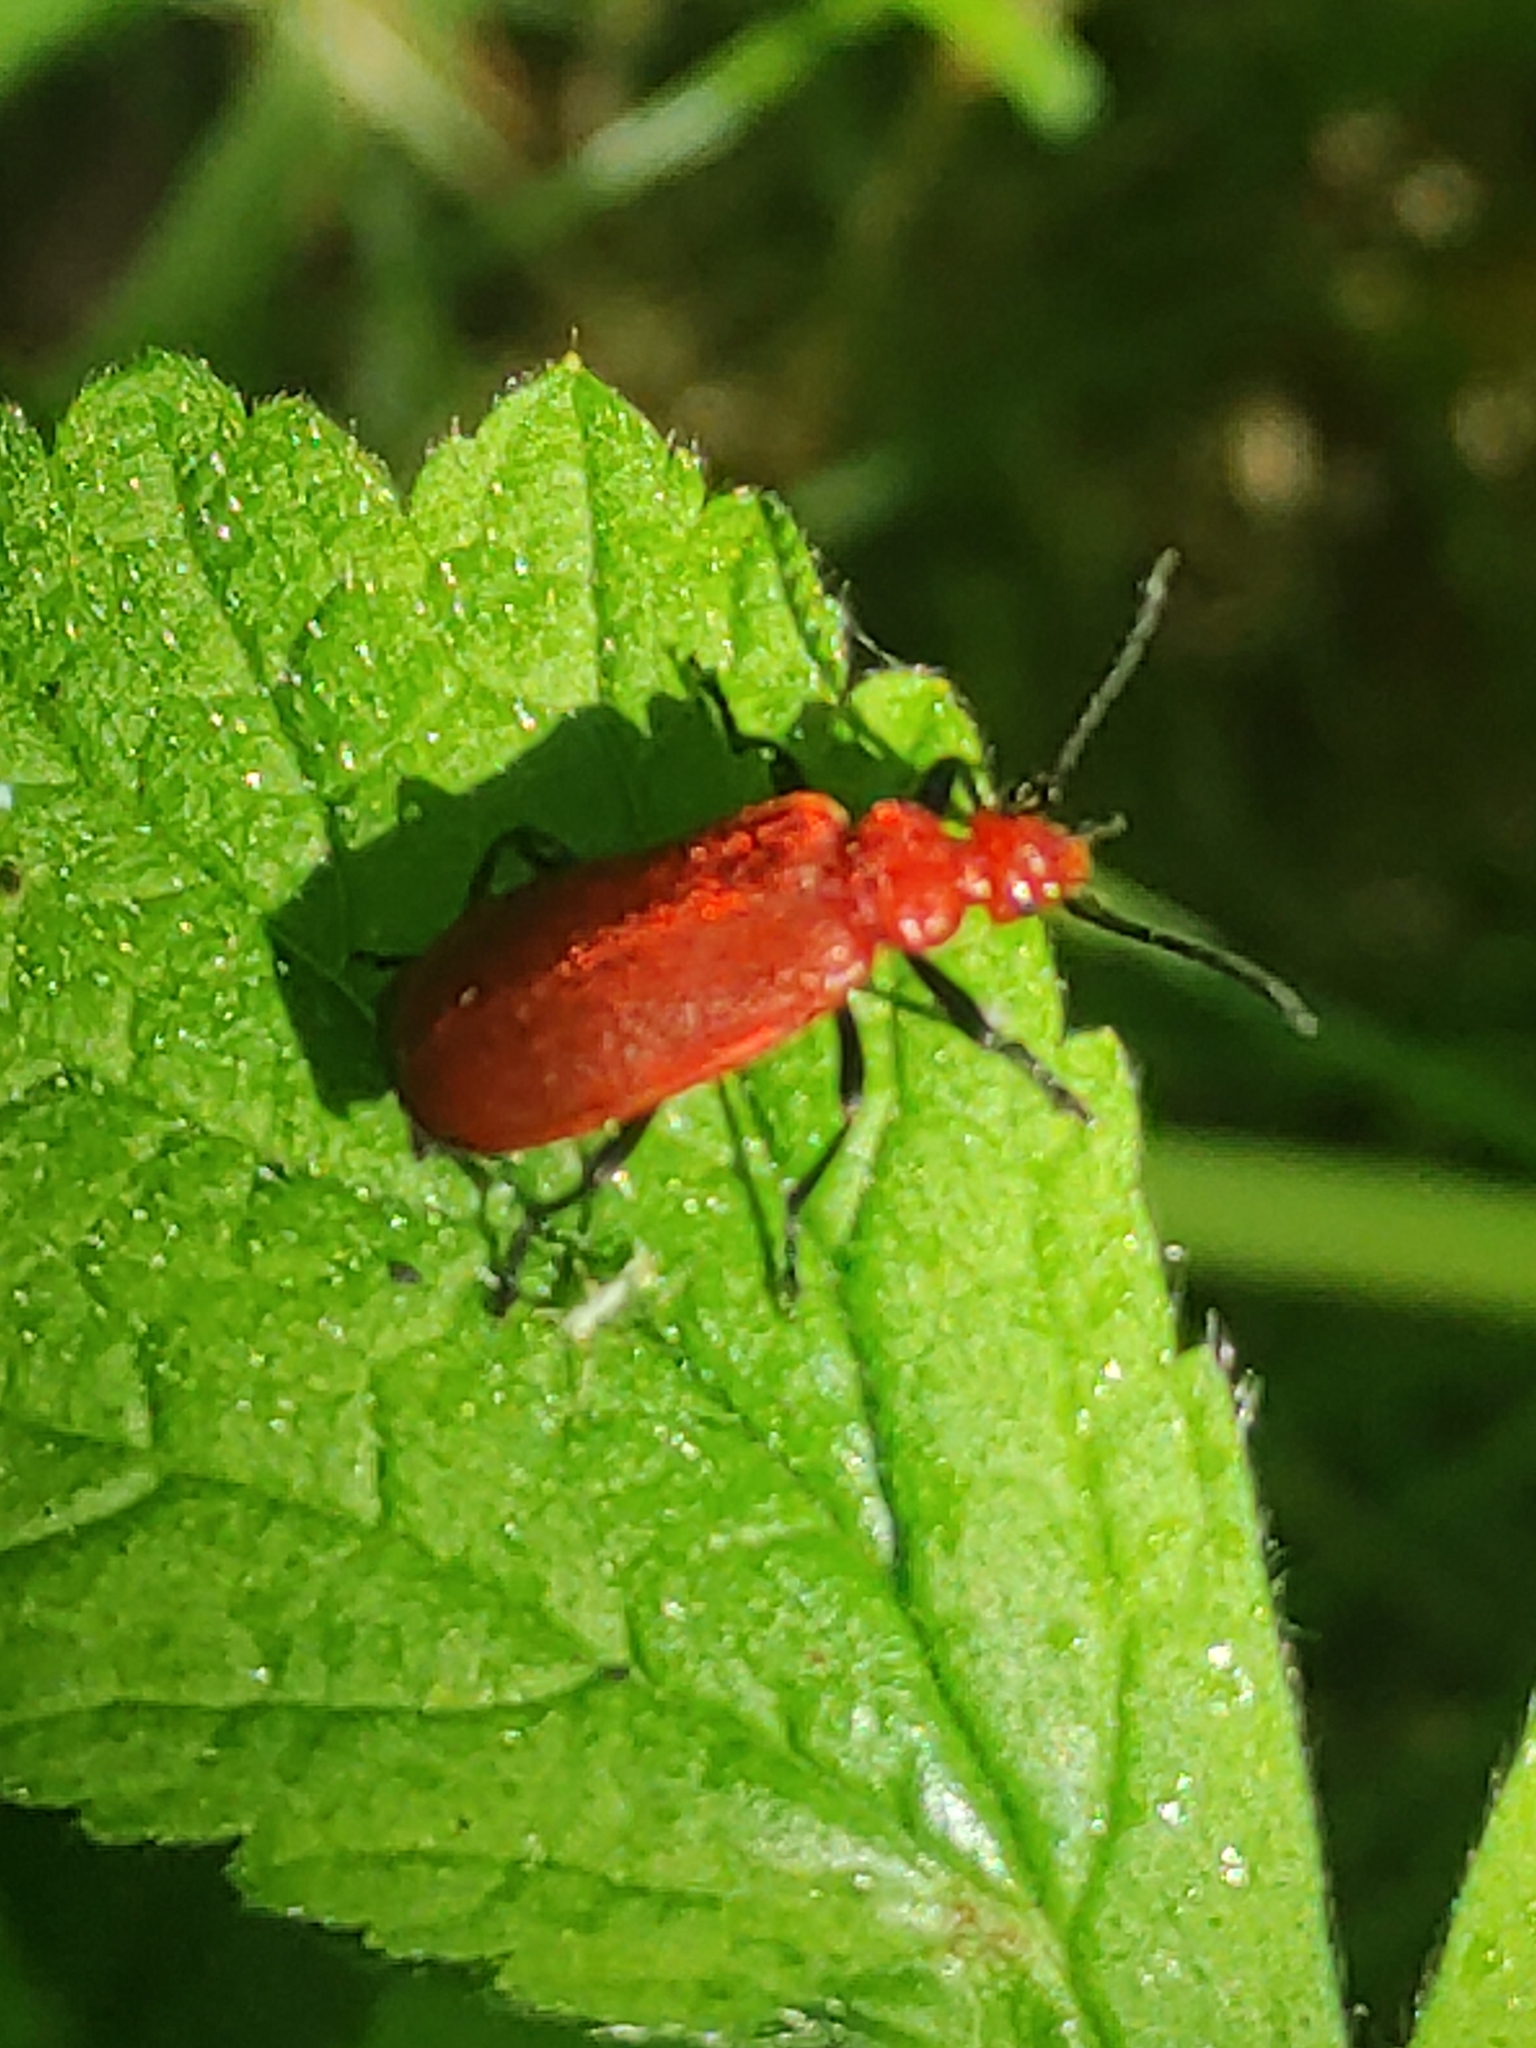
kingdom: Animalia
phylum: Arthropoda
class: Insecta
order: Coleoptera
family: Pyrochroidae
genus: Pyrochroa
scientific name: Pyrochroa serraticornis
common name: Red-headed cardinal beetle
